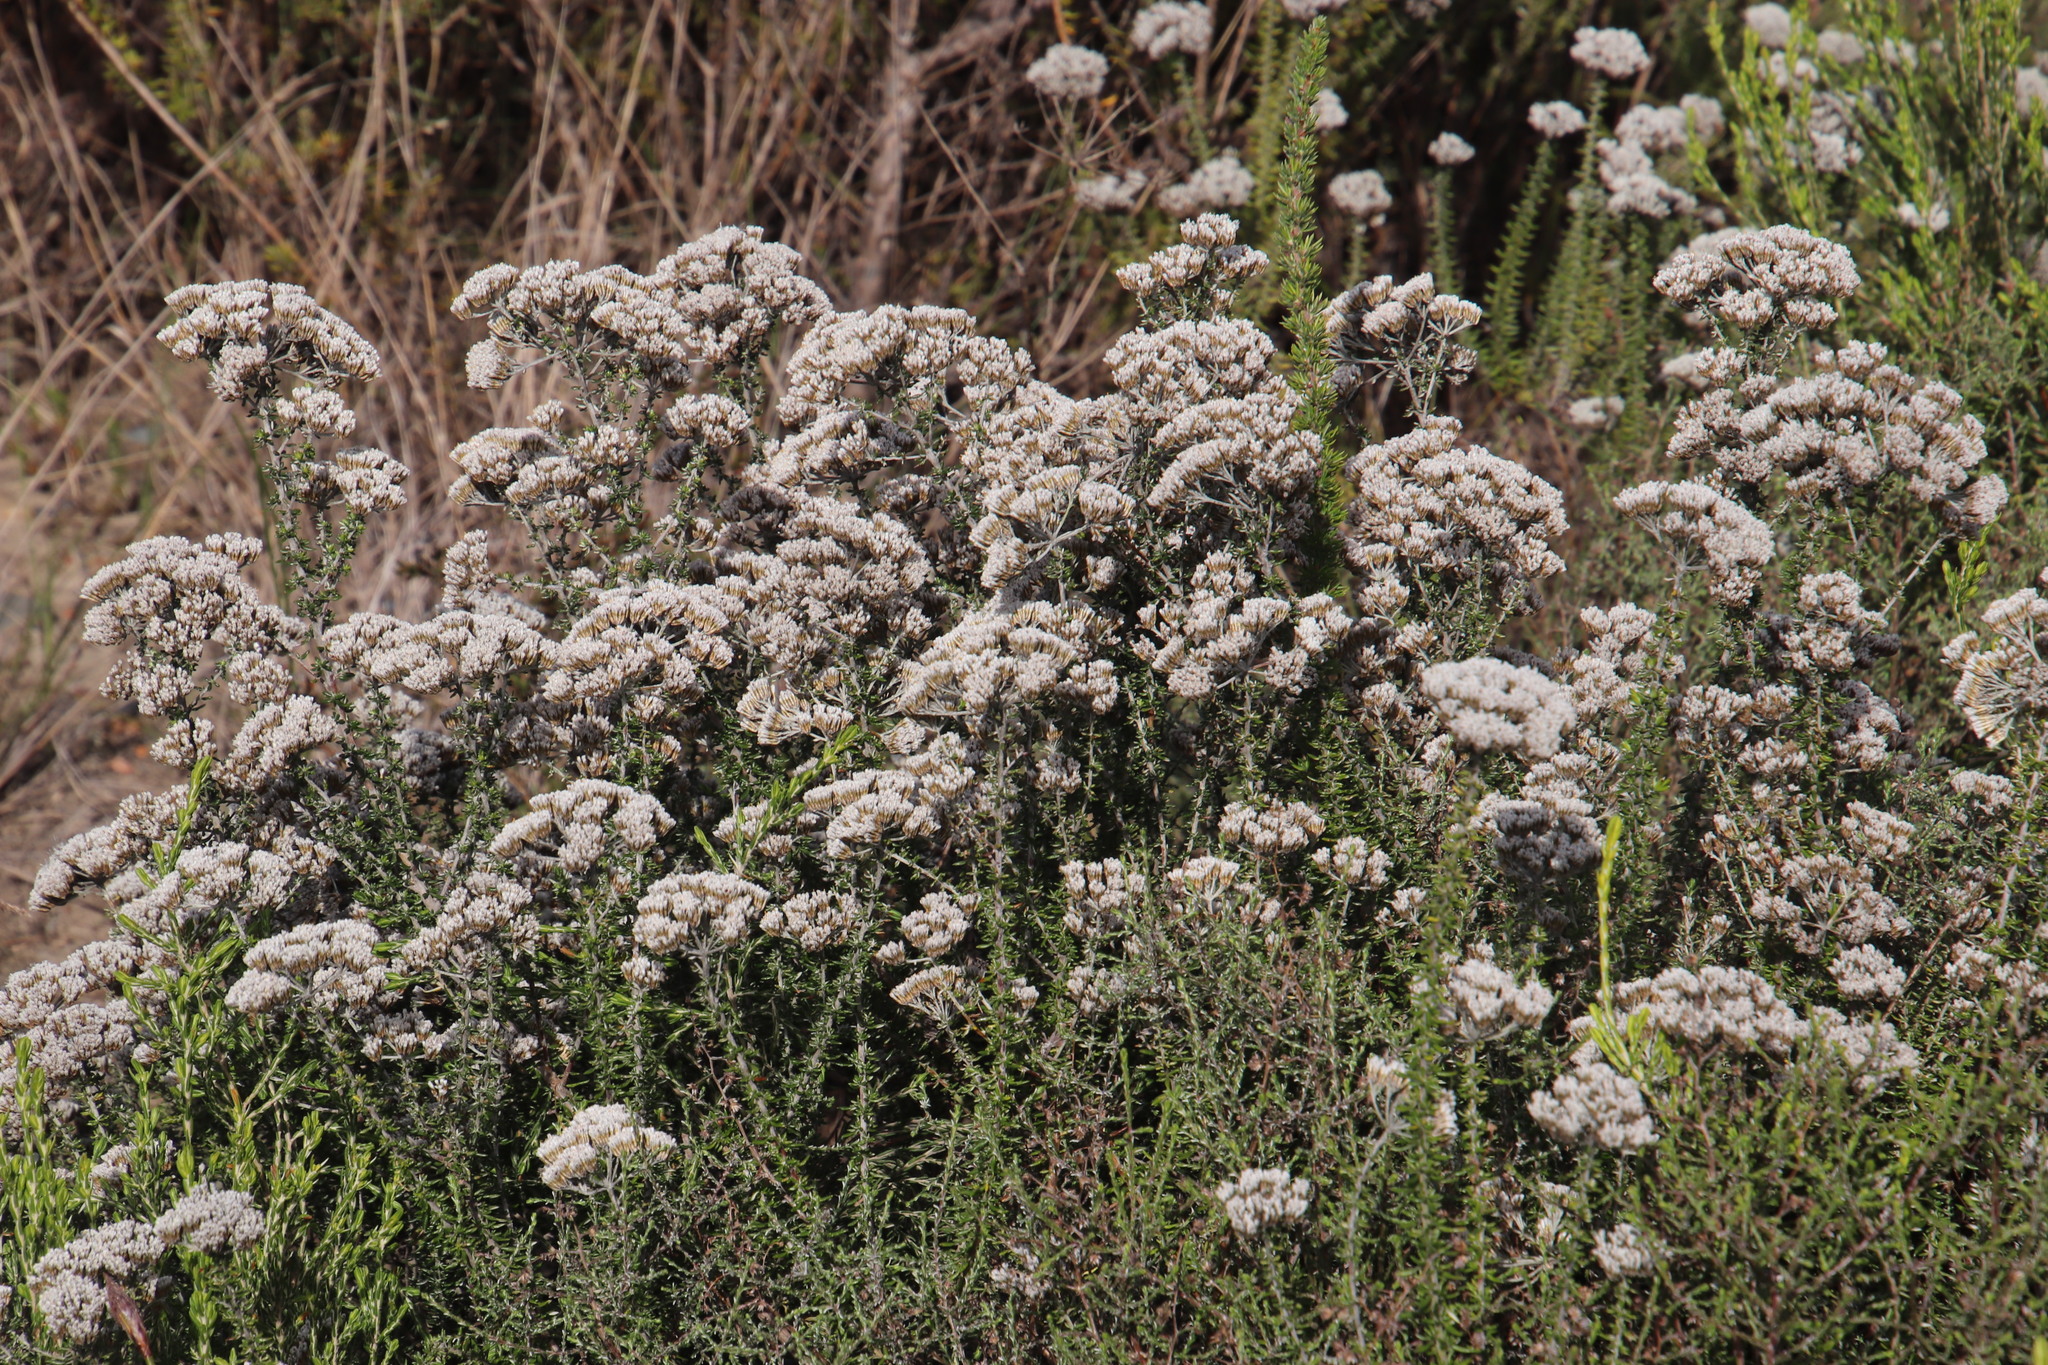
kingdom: Plantae
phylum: Tracheophyta
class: Magnoliopsida
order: Asterales
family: Asteraceae
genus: Metalasia
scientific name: Metalasia densa
